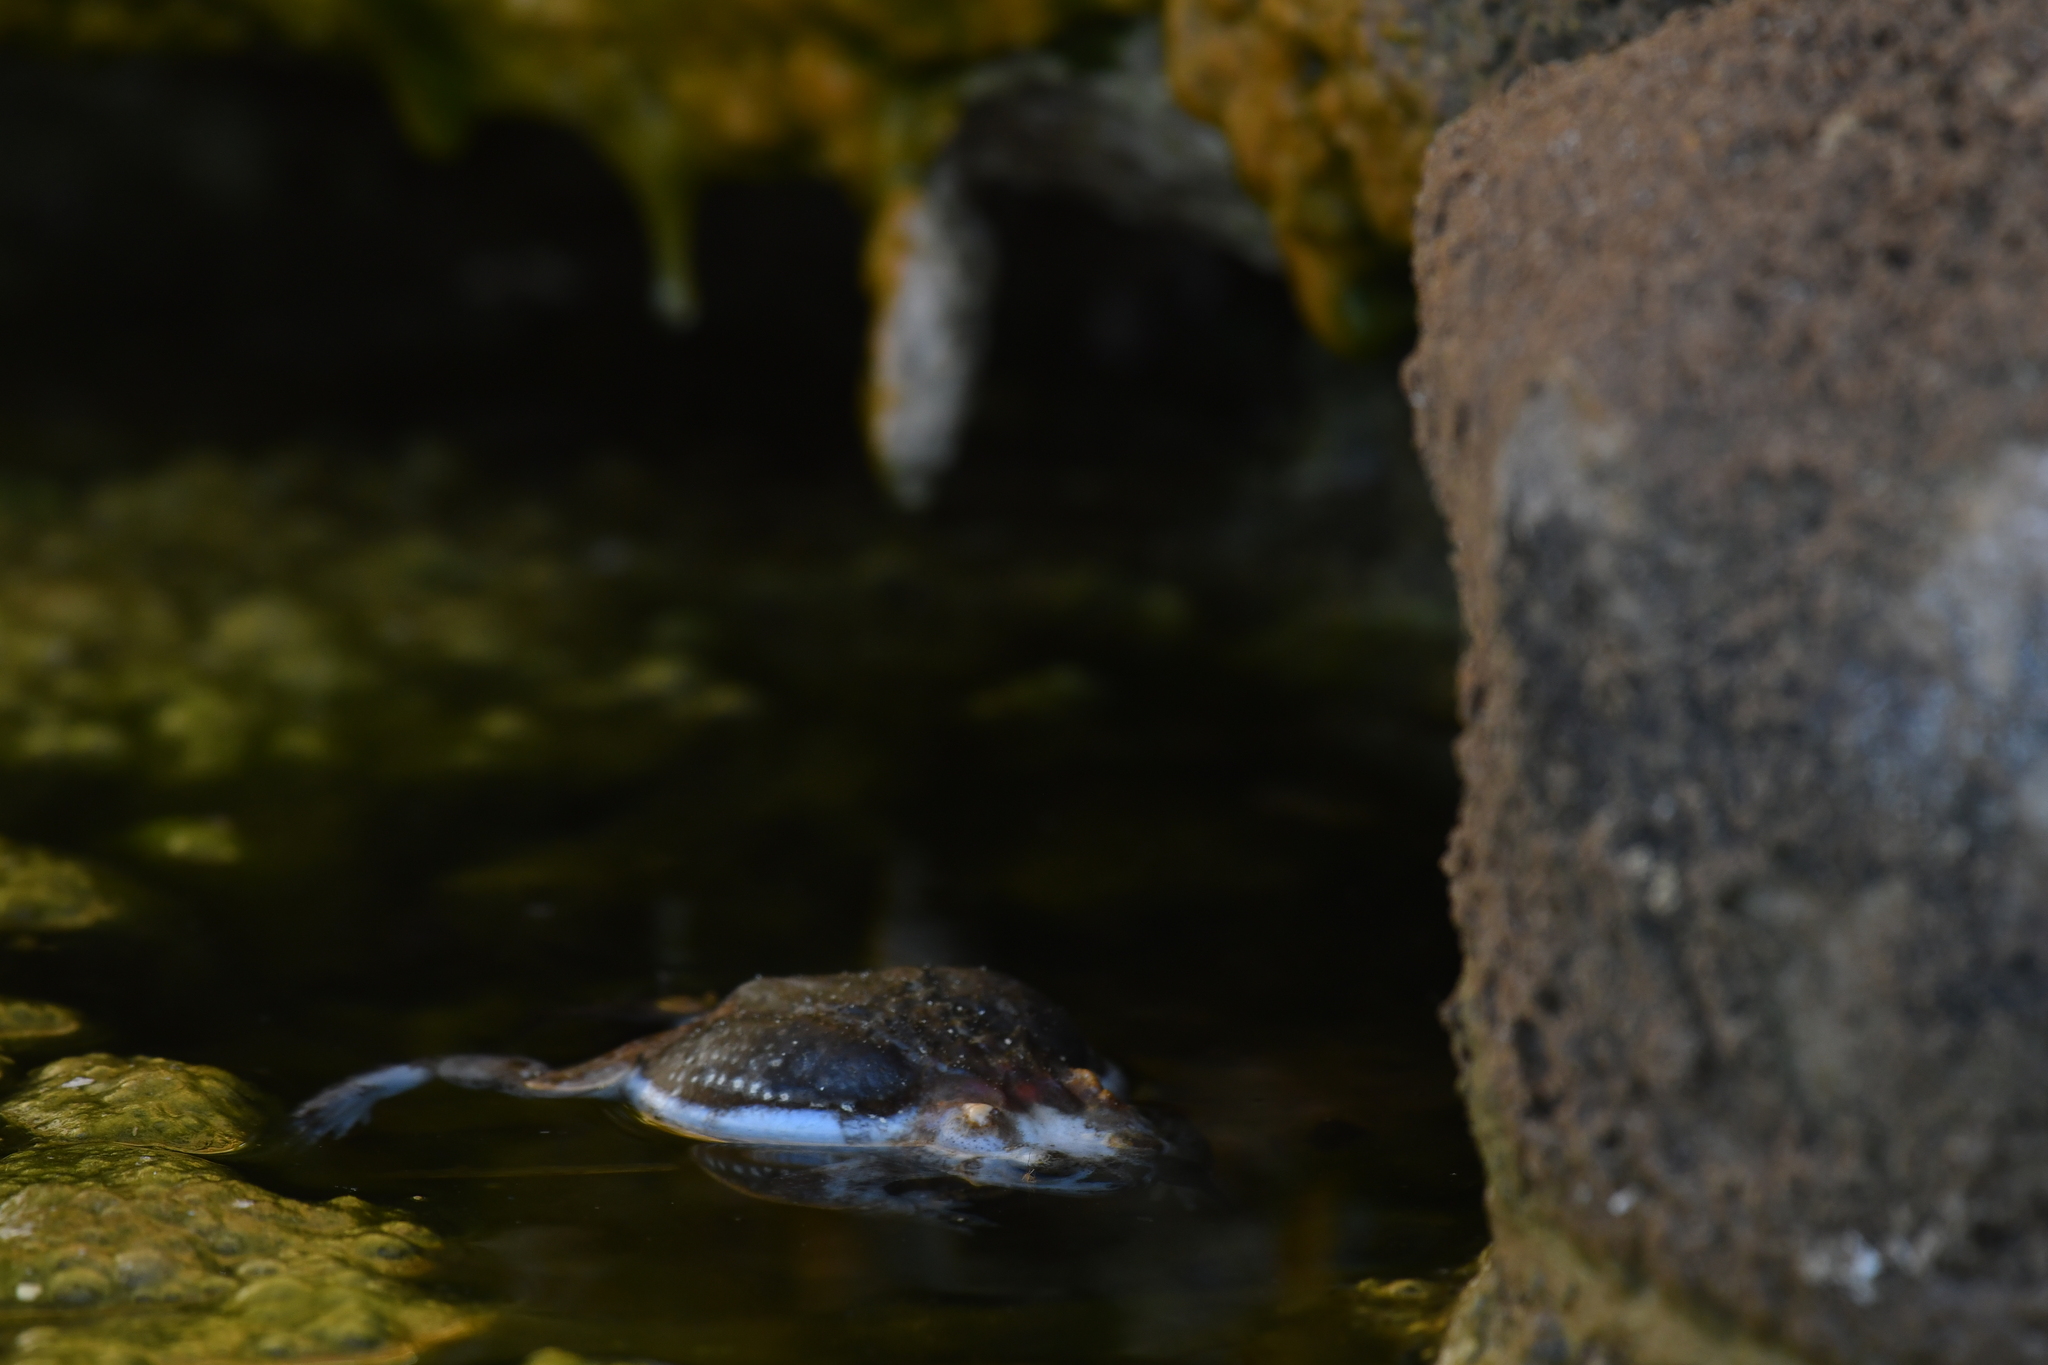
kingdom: Animalia
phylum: Chordata
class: Amphibia
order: Anura
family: Bufonidae
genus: Bufotes
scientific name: Bufotes boulengeri
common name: African green toad
